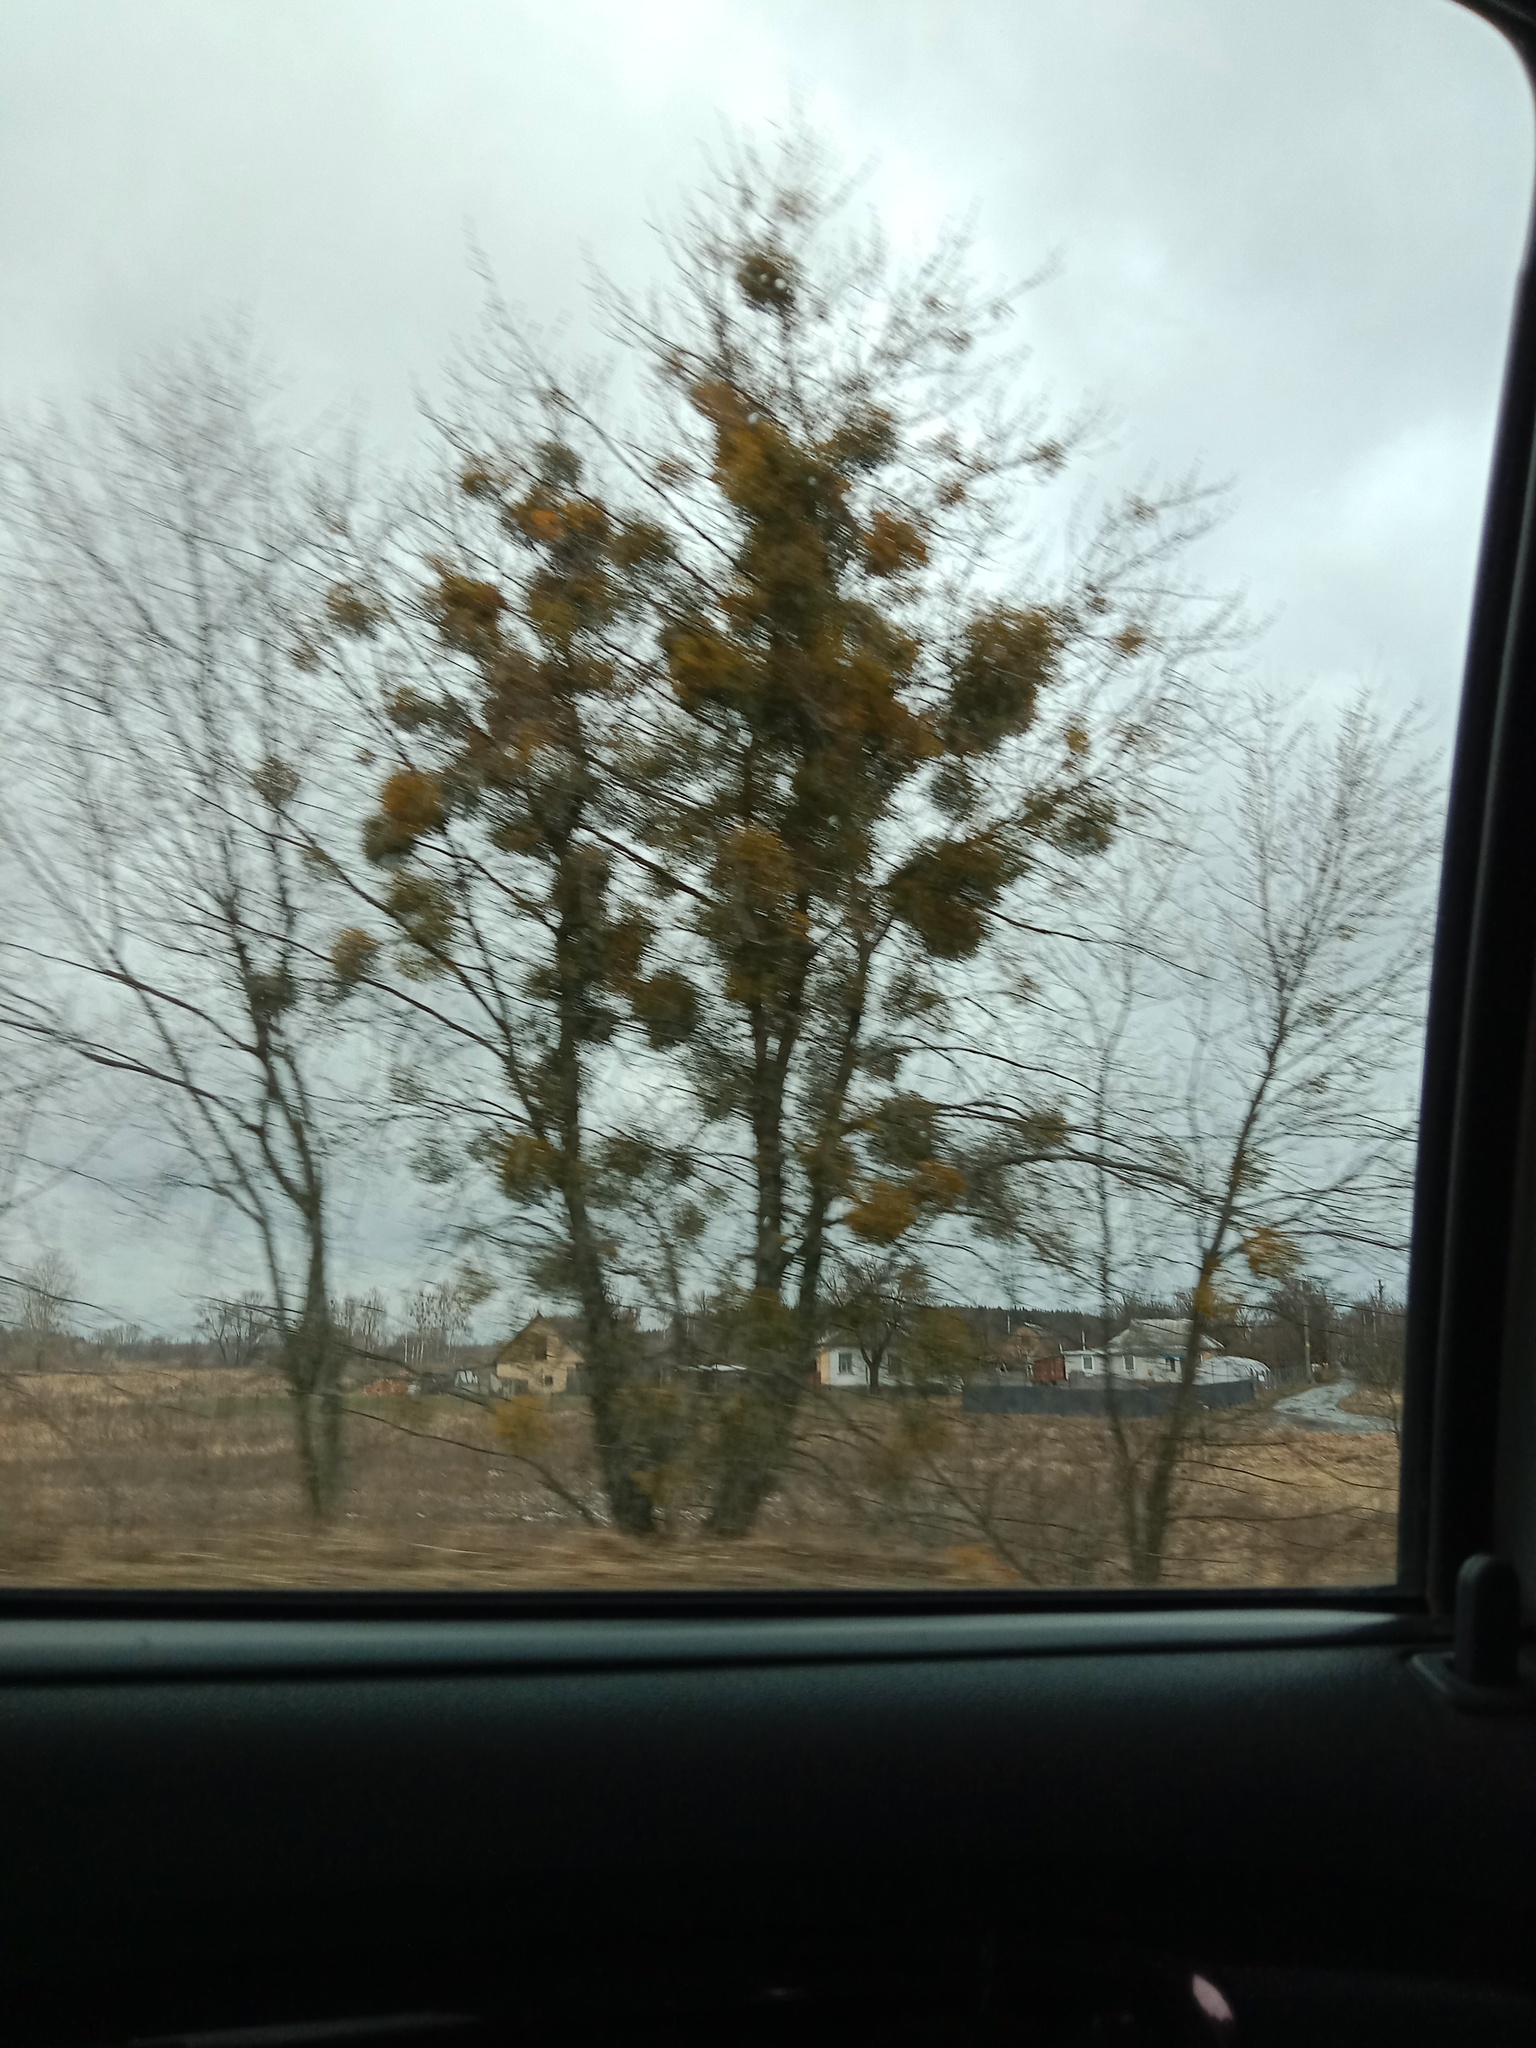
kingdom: Plantae
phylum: Tracheophyta
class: Magnoliopsida
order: Santalales
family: Viscaceae
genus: Viscum
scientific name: Viscum album
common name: Mistletoe
